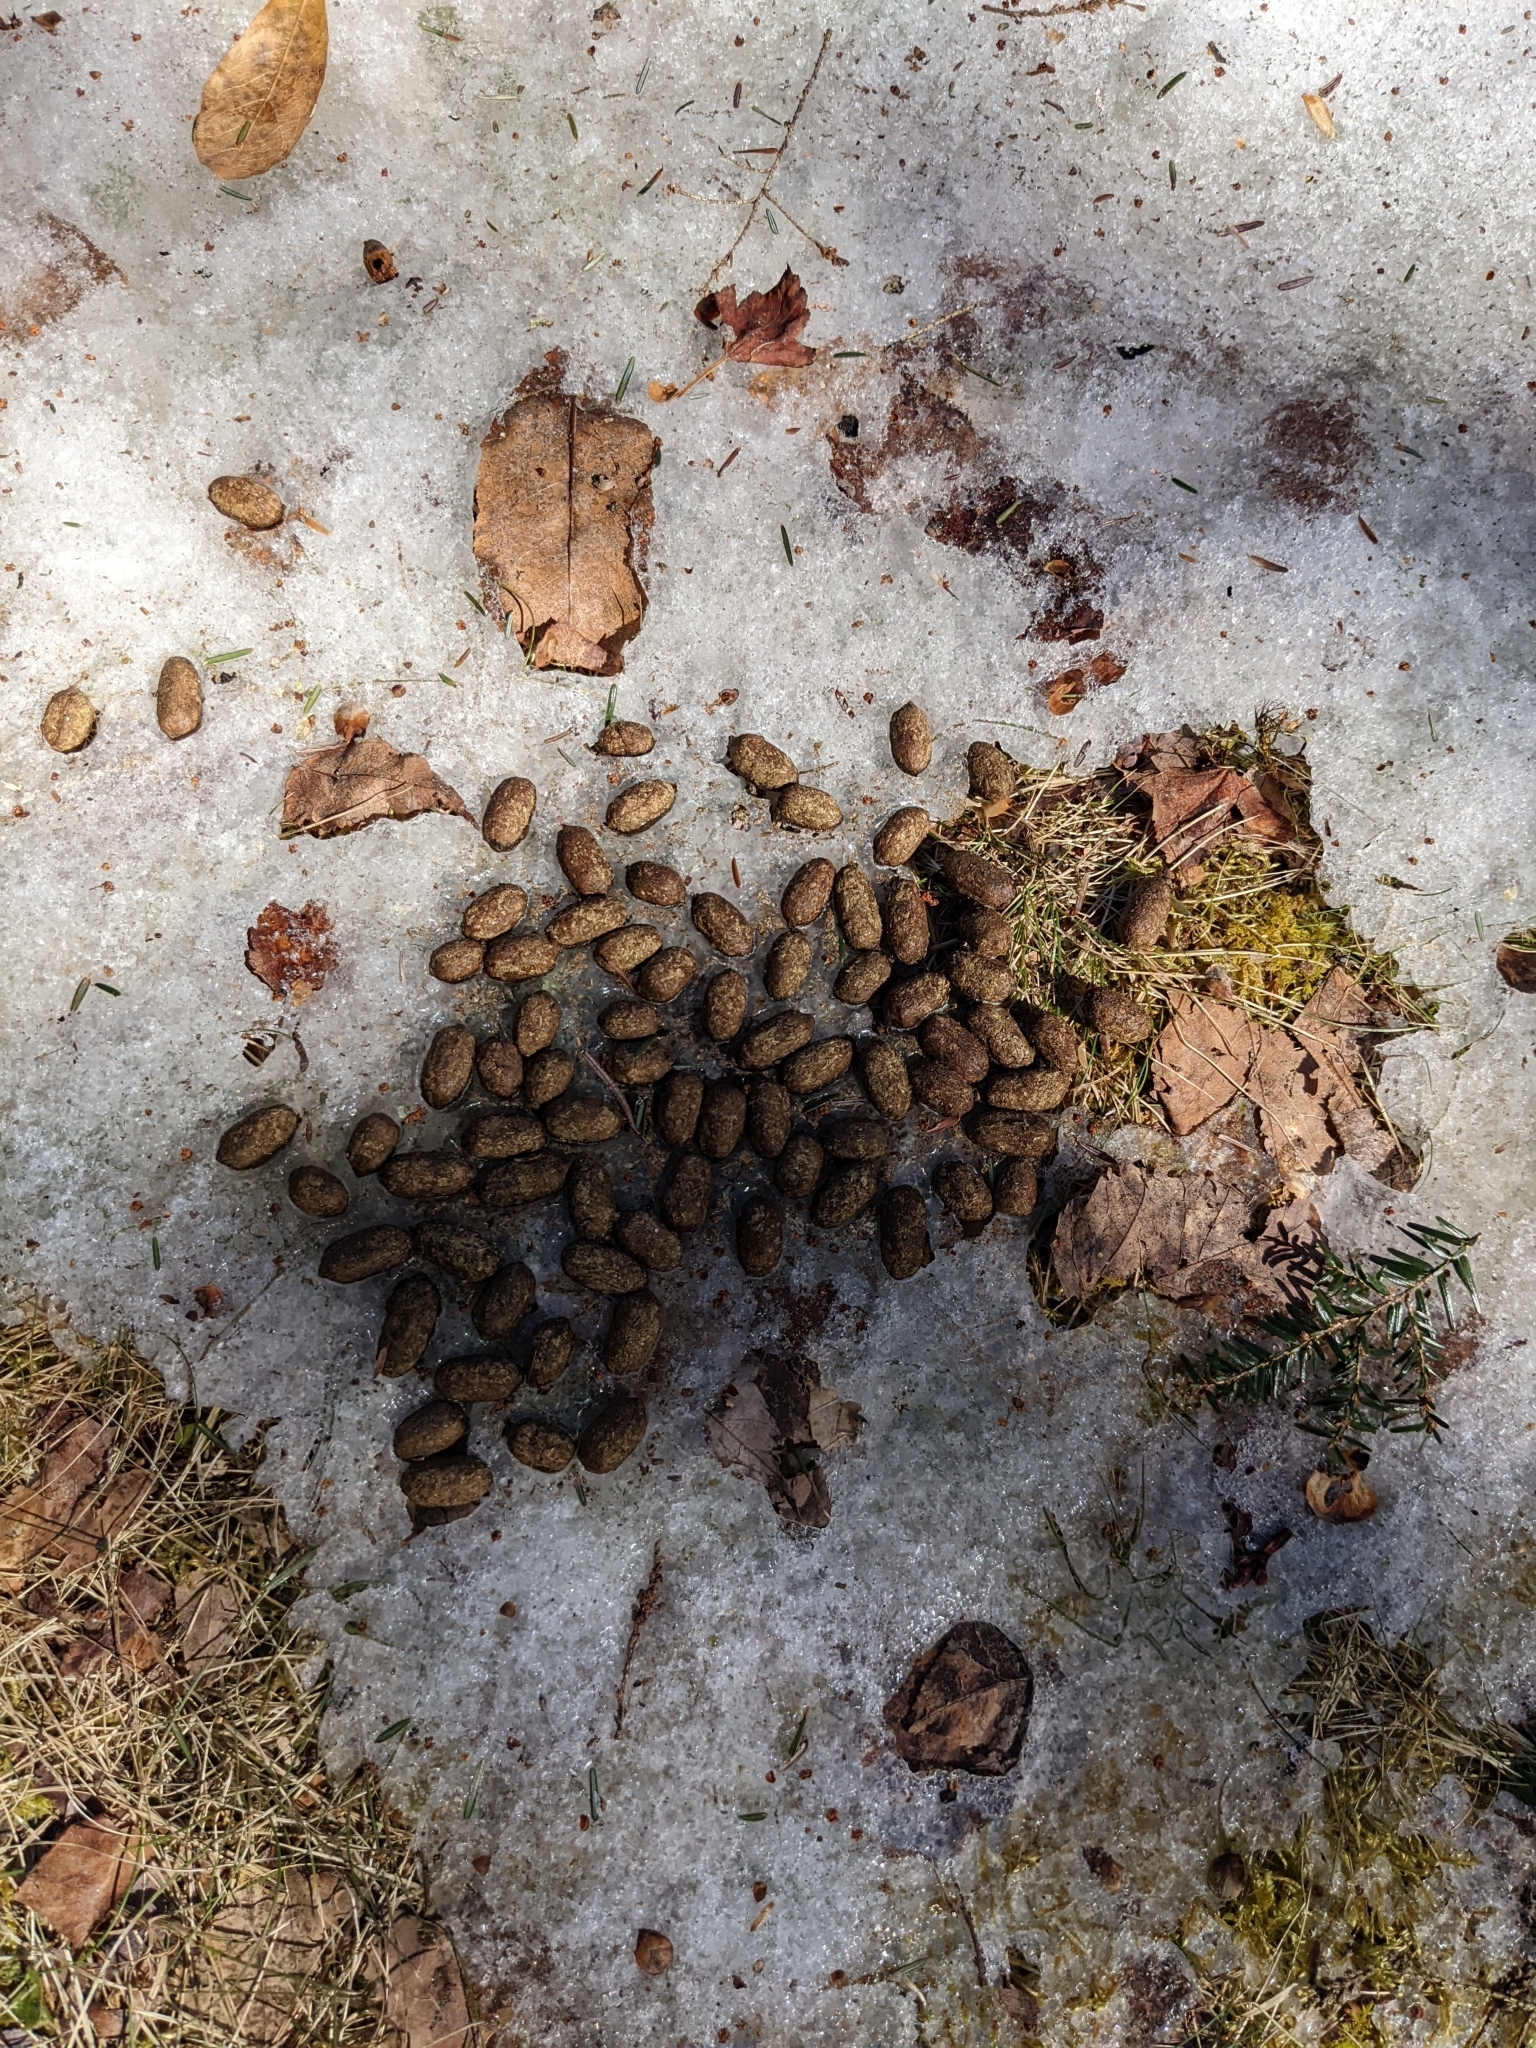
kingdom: Animalia
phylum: Chordata
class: Mammalia
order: Artiodactyla
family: Cervidae
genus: Odocoileus
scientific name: Odocoileus virginianus
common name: White-tailed deer
